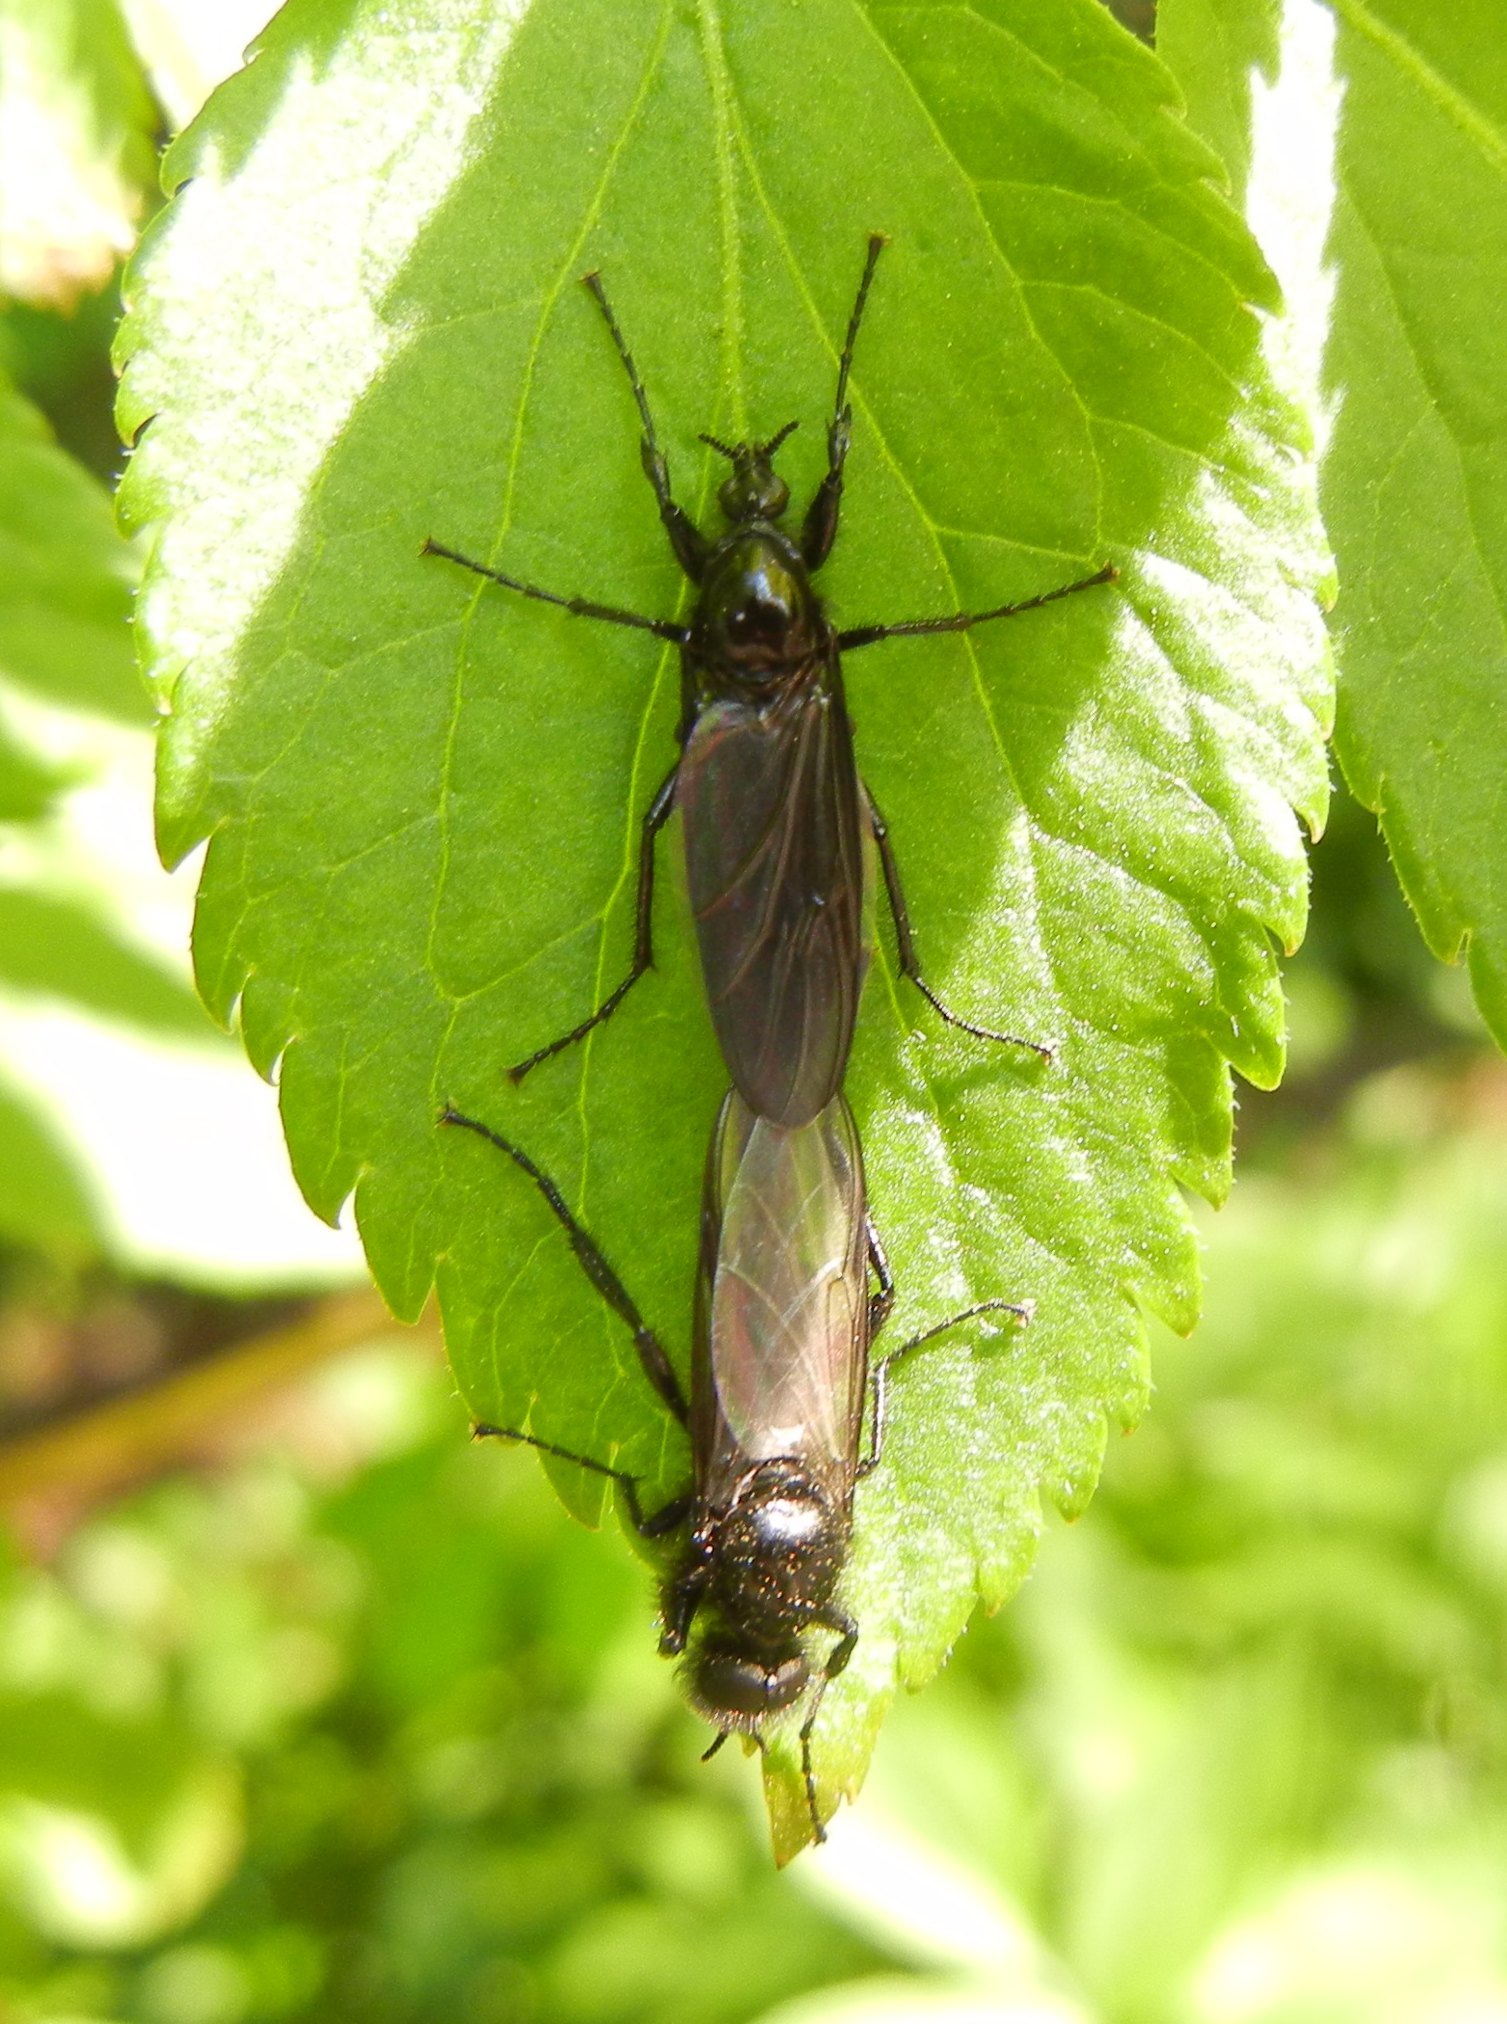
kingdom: Animalia
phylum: Arthropoda
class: Insecta
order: Diptera
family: Bibionidae
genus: Bibio
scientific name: Bibio marci
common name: St marks fly
